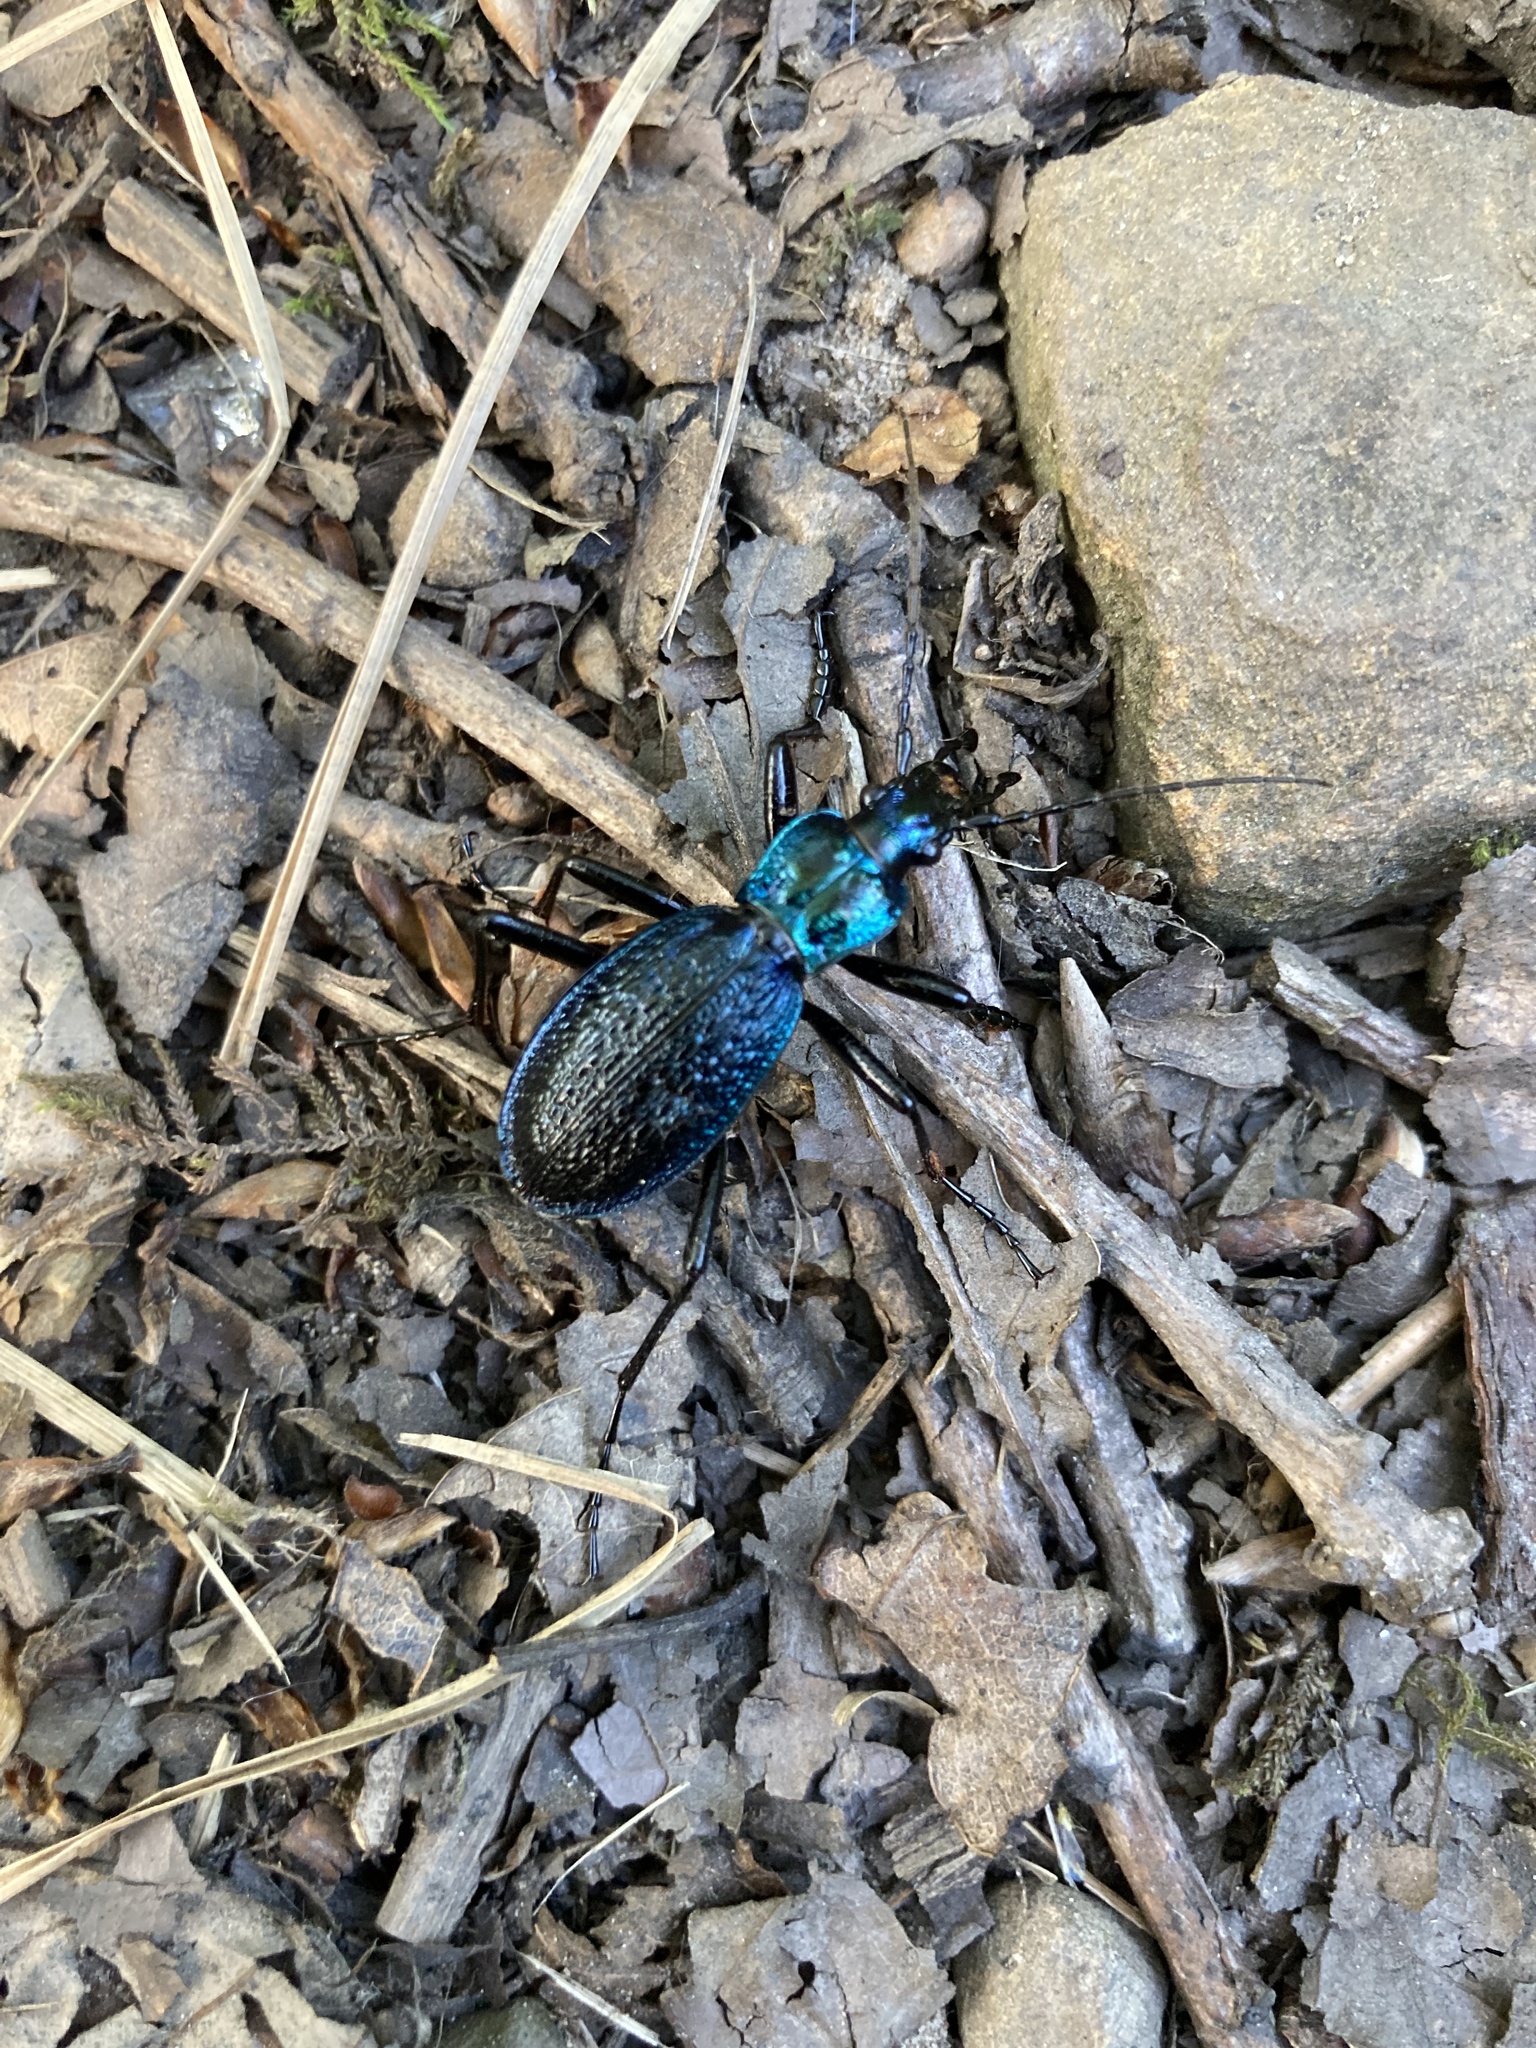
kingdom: Animalia
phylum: Arthropoda
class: Insecta
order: Coleoptera
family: Carabidae
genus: Carabus
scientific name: Carabus intricatus
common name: Blue ground beetle
